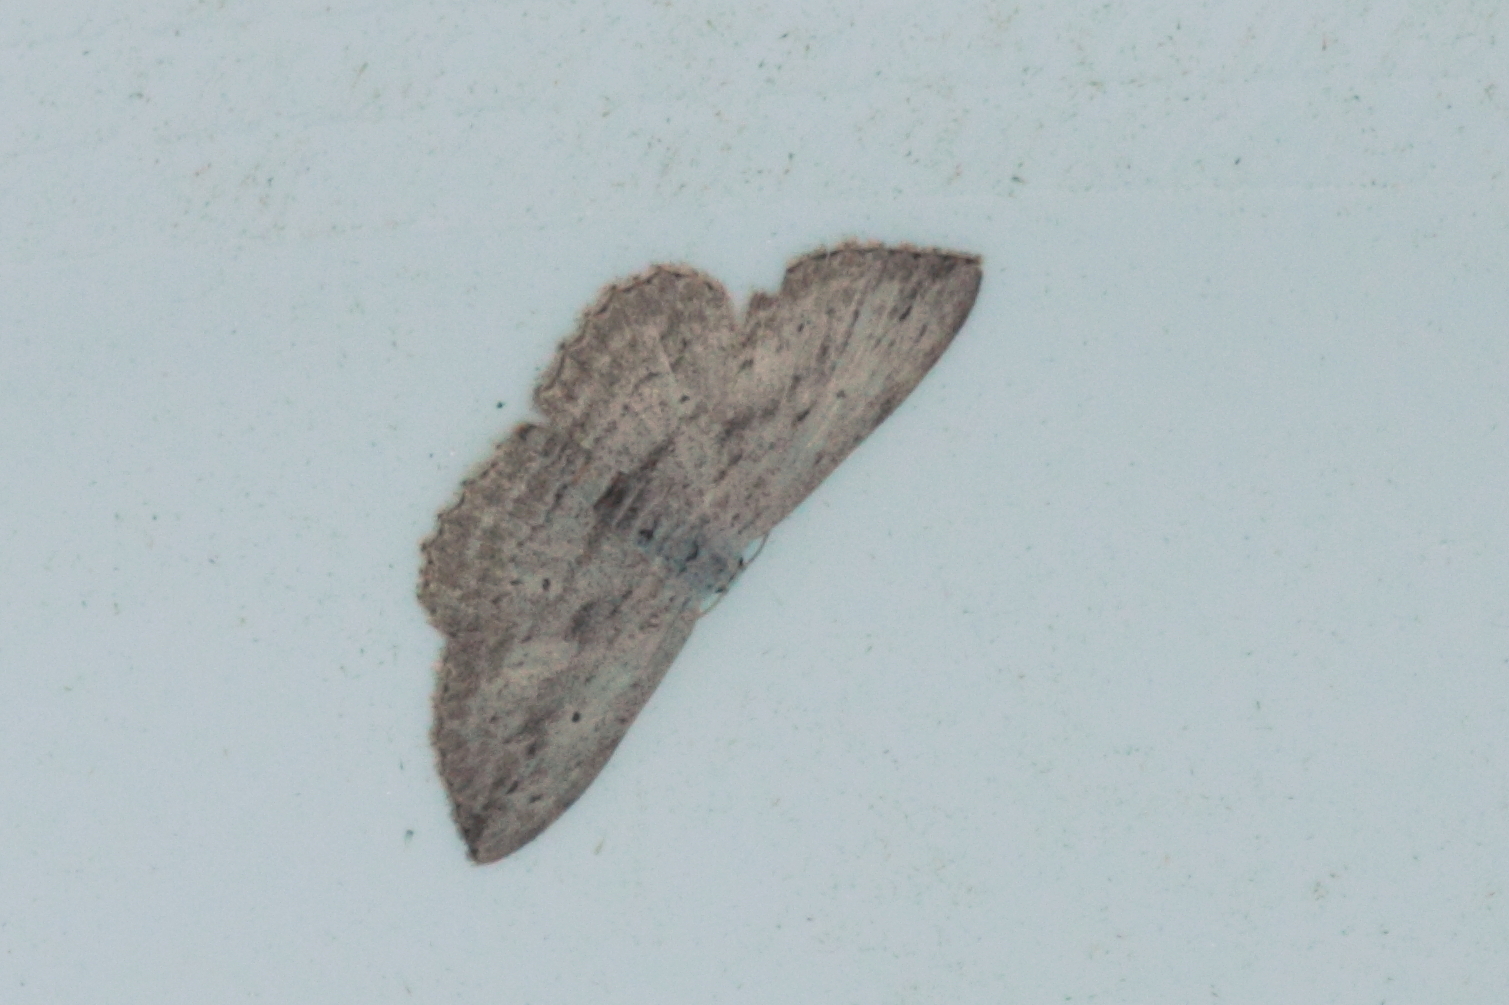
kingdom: Animalia
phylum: Arthropoda
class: Insecta
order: Lepidoptera
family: Geometridae
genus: Scopula
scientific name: Scopula desita
